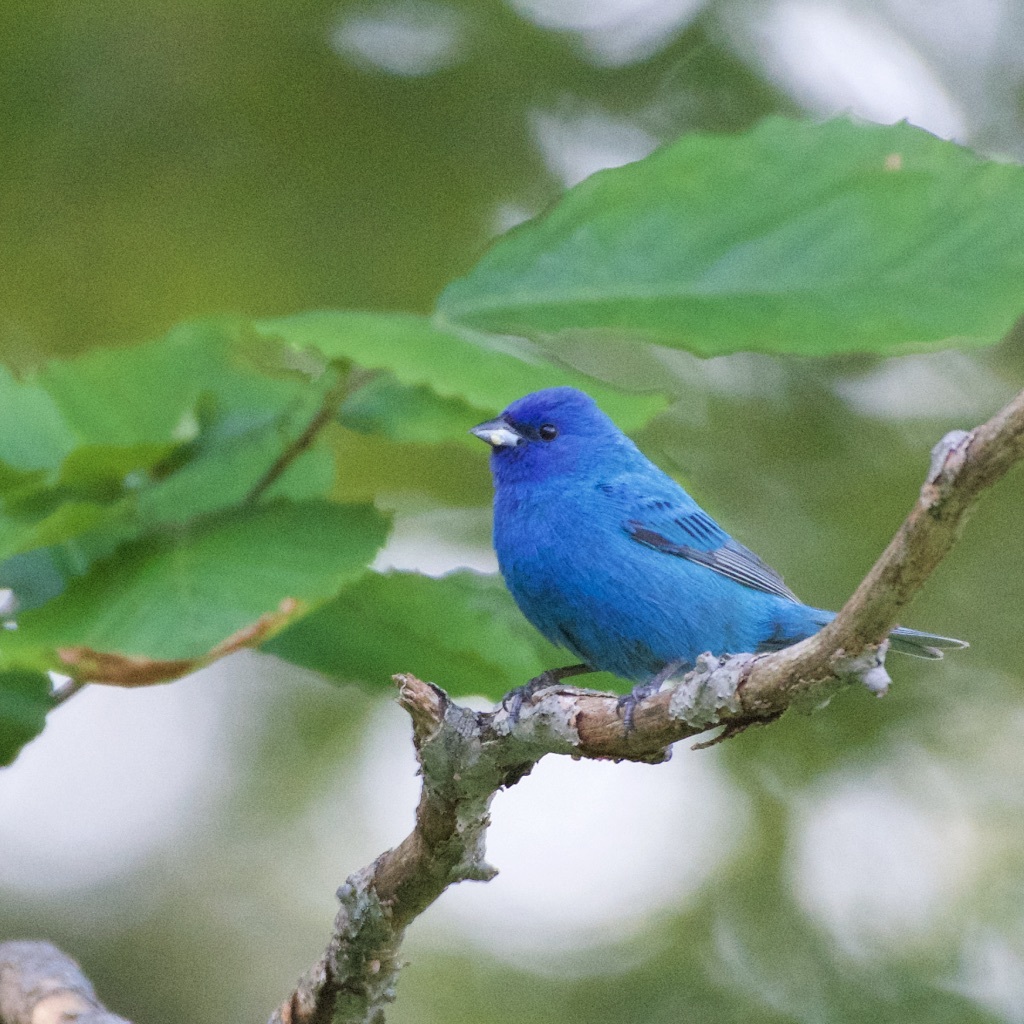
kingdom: Animalia
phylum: Chordata
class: Aves
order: Passeriformes
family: Cardinalidae
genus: Passerina
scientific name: Passerina cyanea
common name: Indigo bunting
